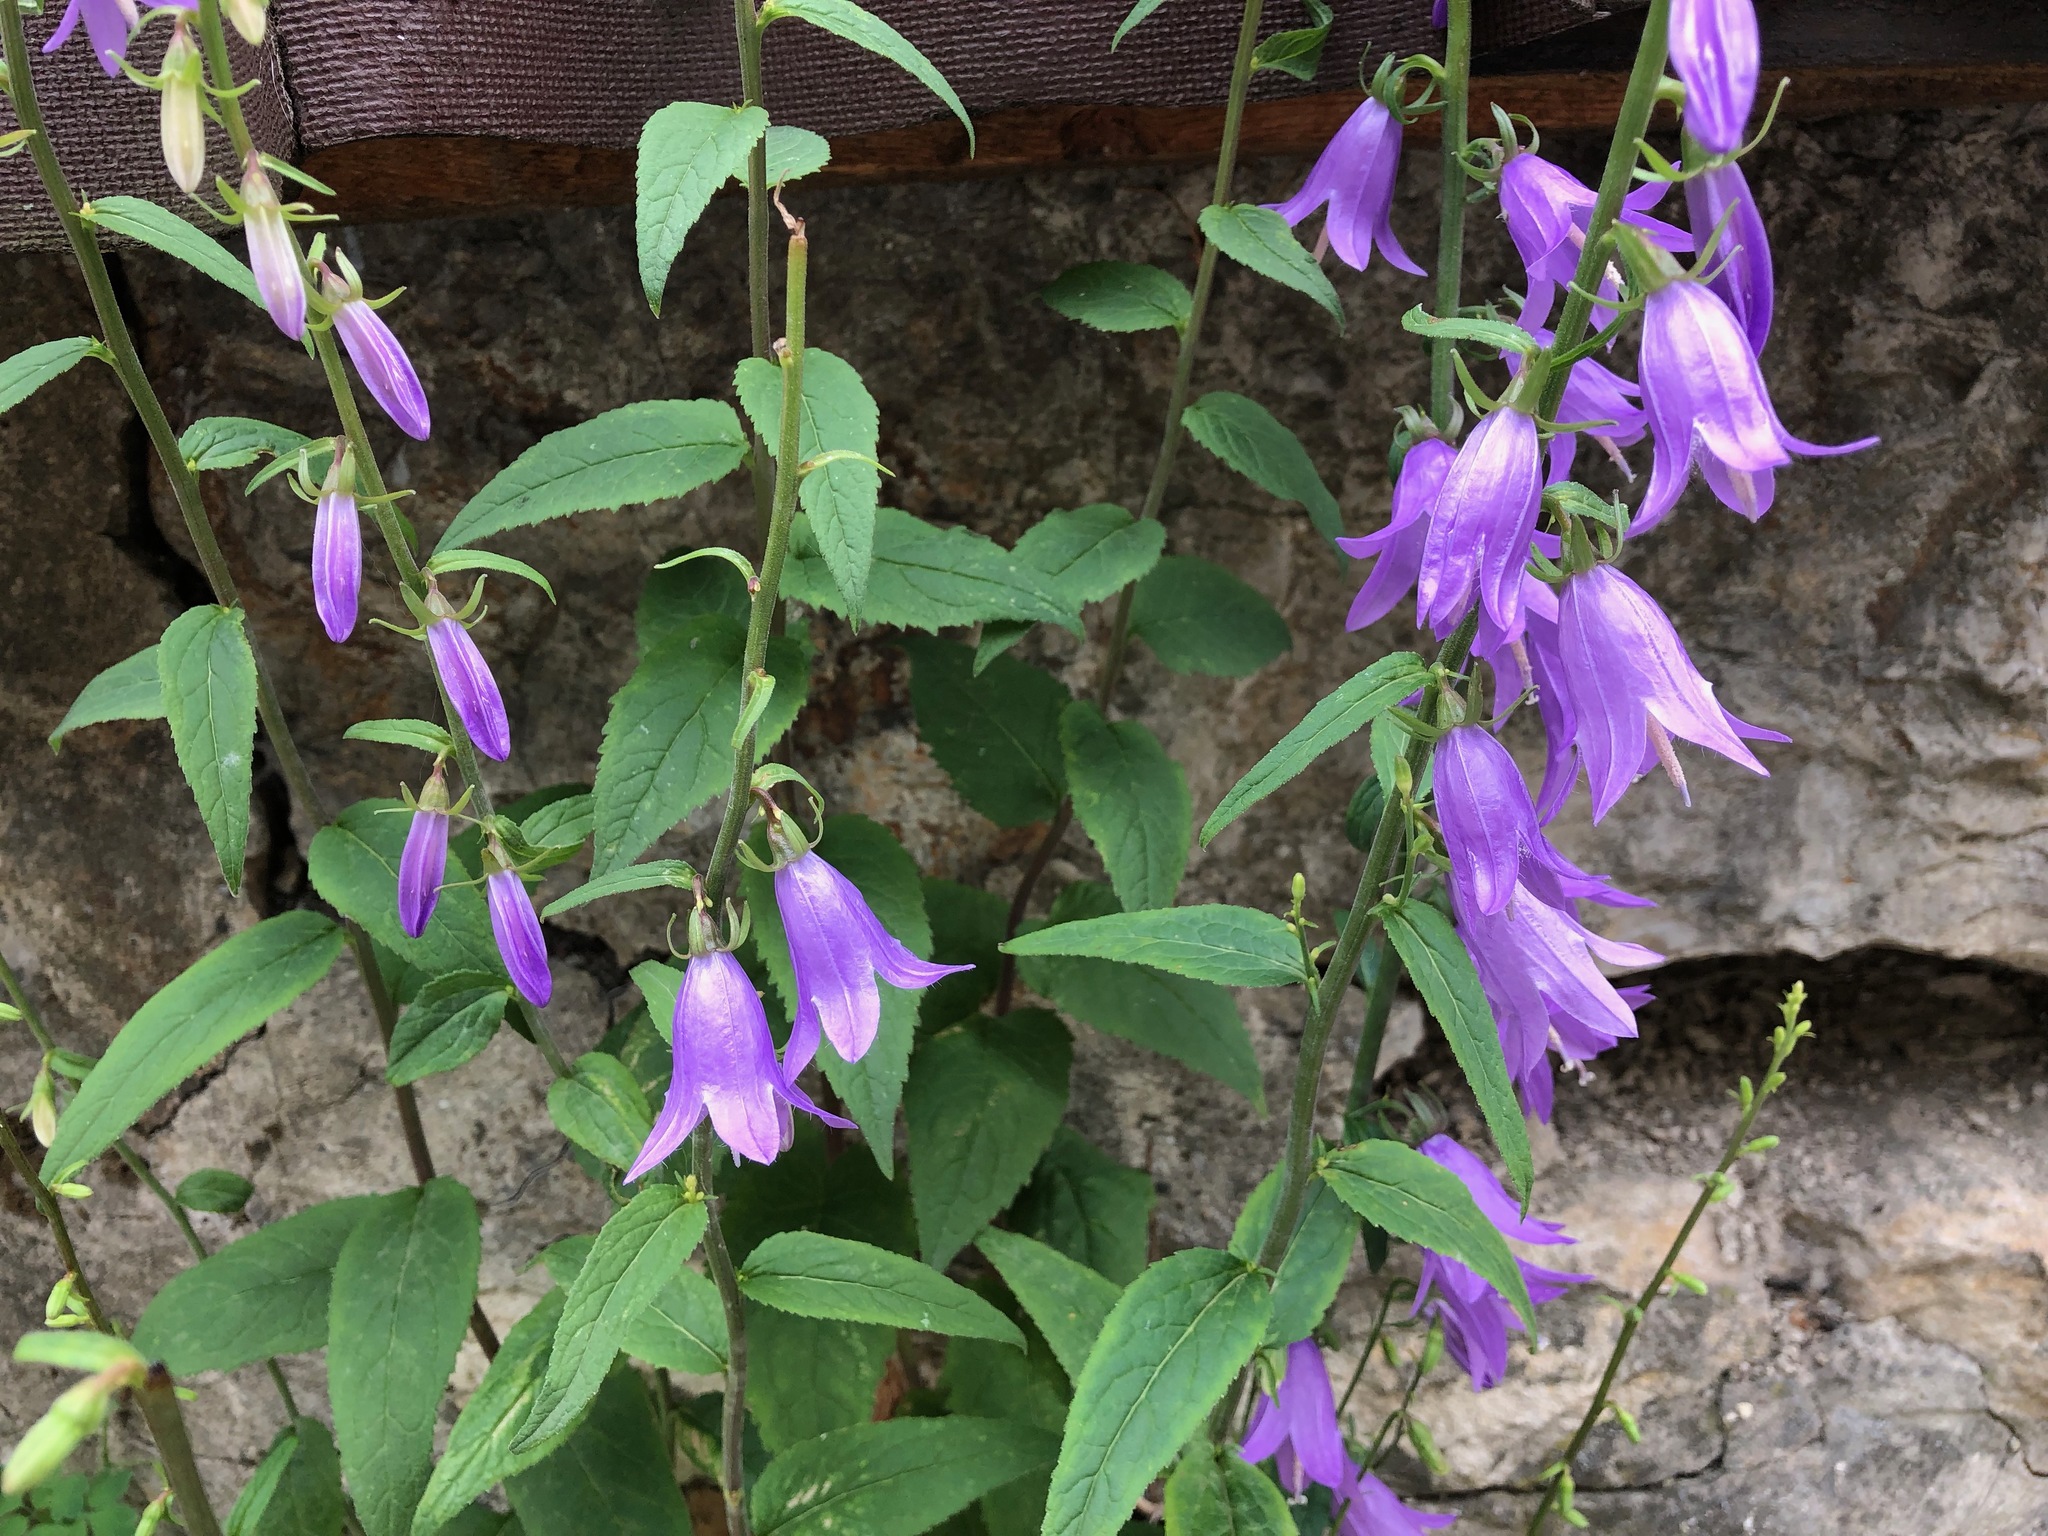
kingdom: Plantae
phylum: Tracheophyta
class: Magnoliopsida
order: Asterales
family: Campanulaceae
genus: Campanula
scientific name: Campanula rapunculoides
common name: Creeping bellflower
